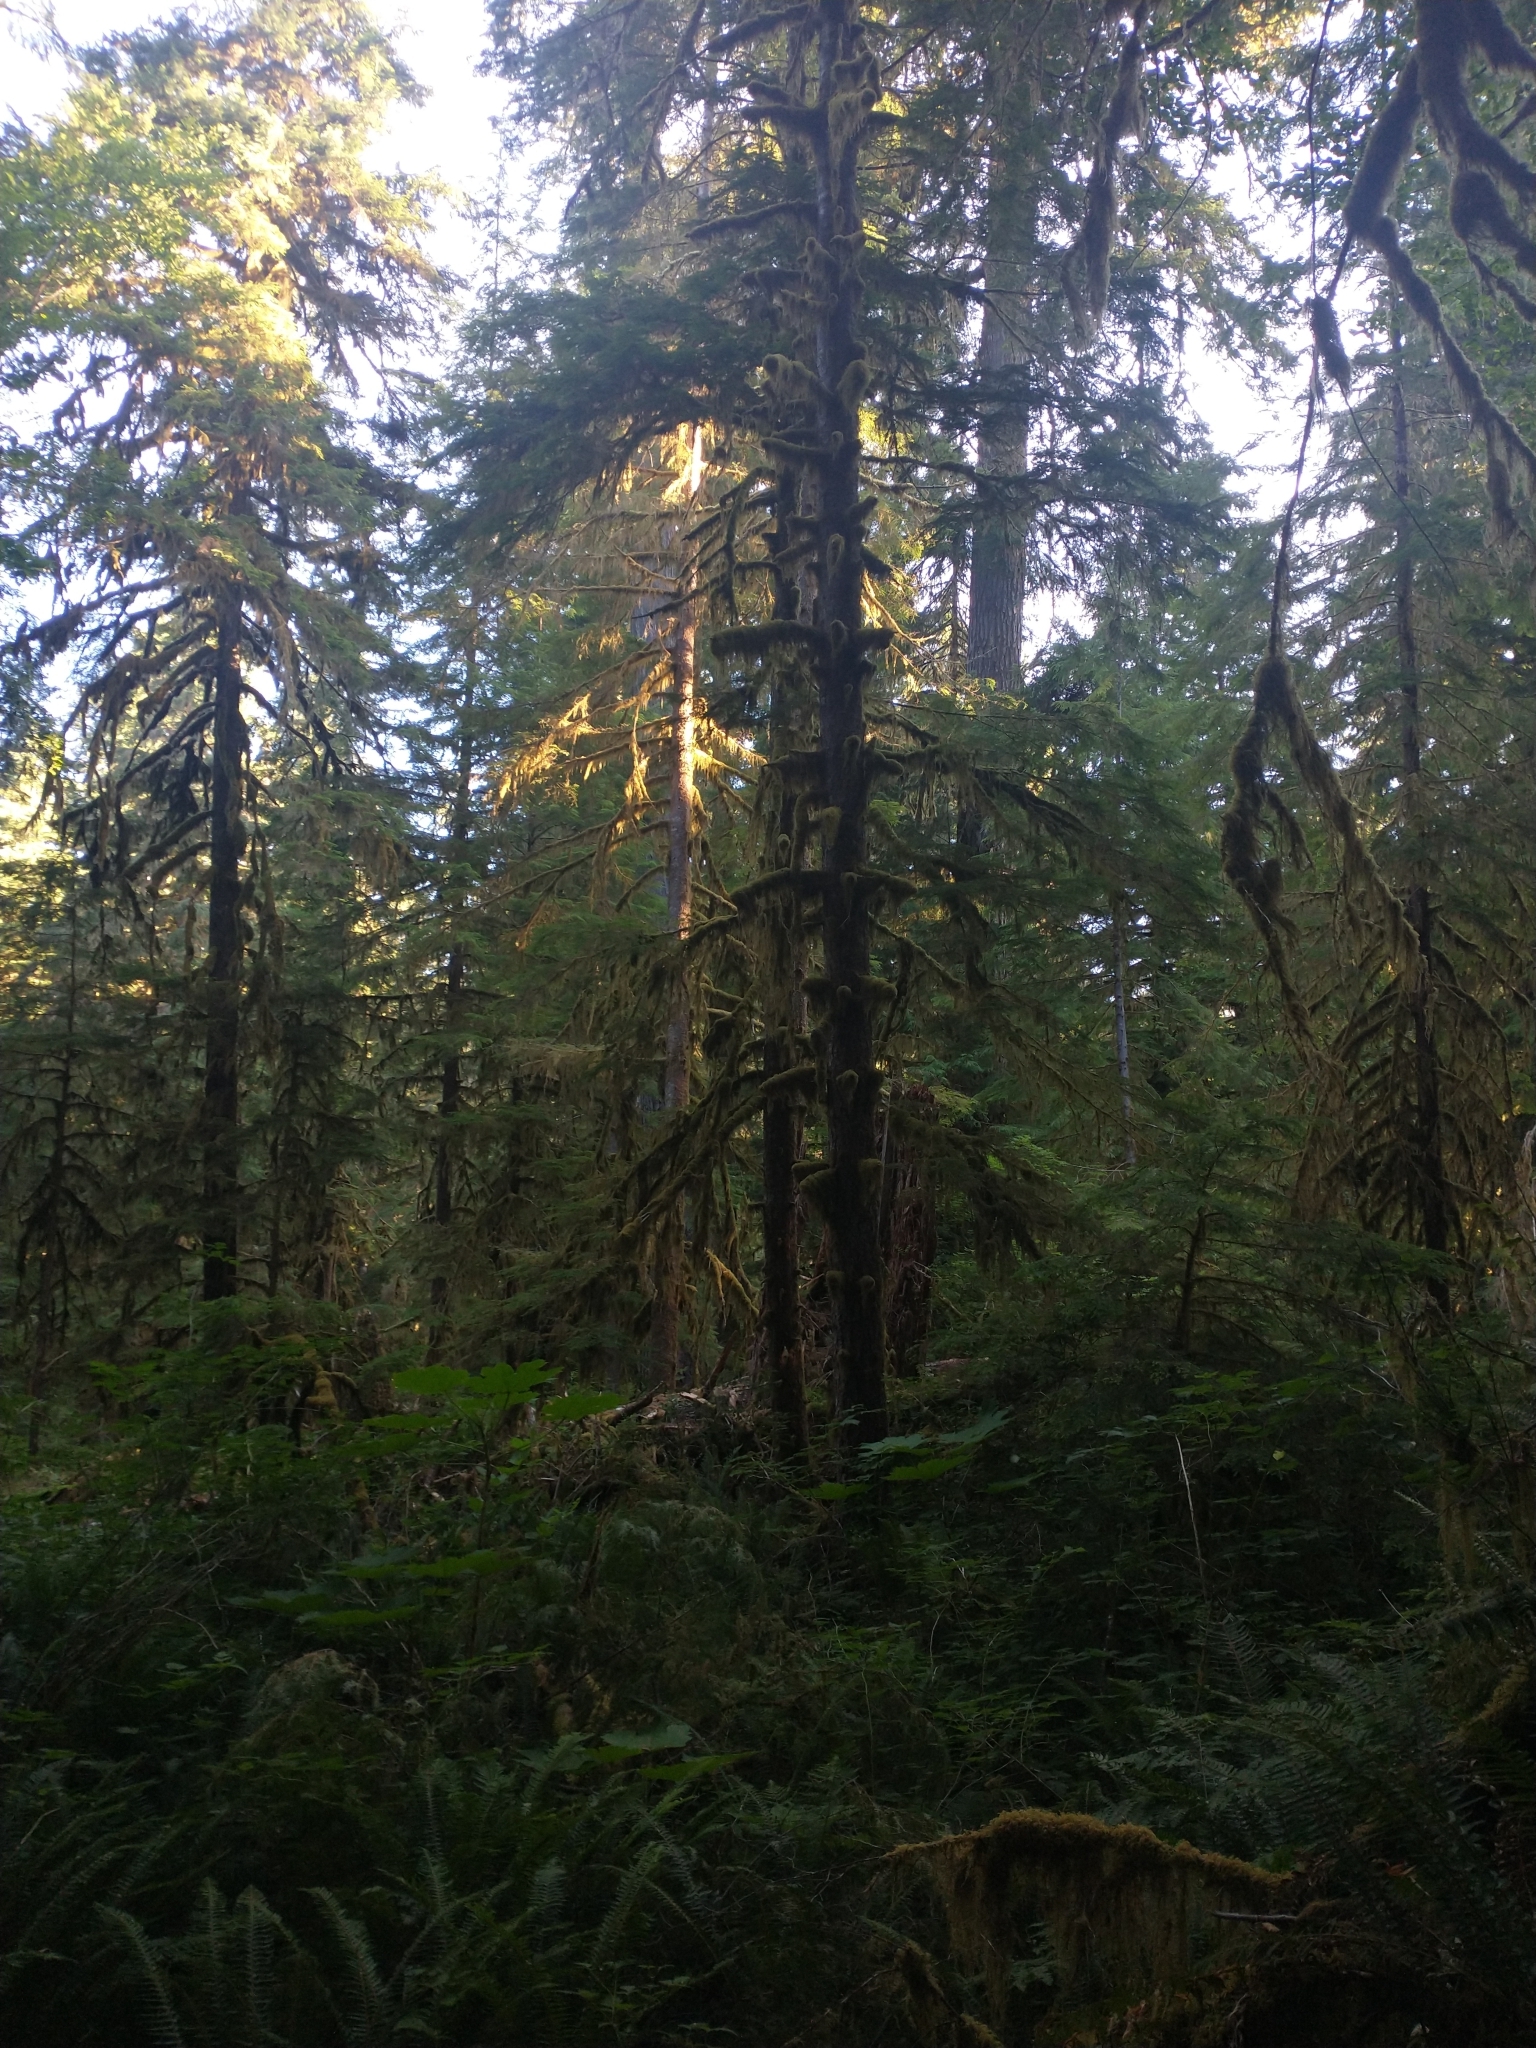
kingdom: Plantae
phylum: Tracheophyta
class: Pinopsida
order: Pinales
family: Pinaceae
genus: Tsuga
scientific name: Tsuga heterophylla
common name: Western hemlock
